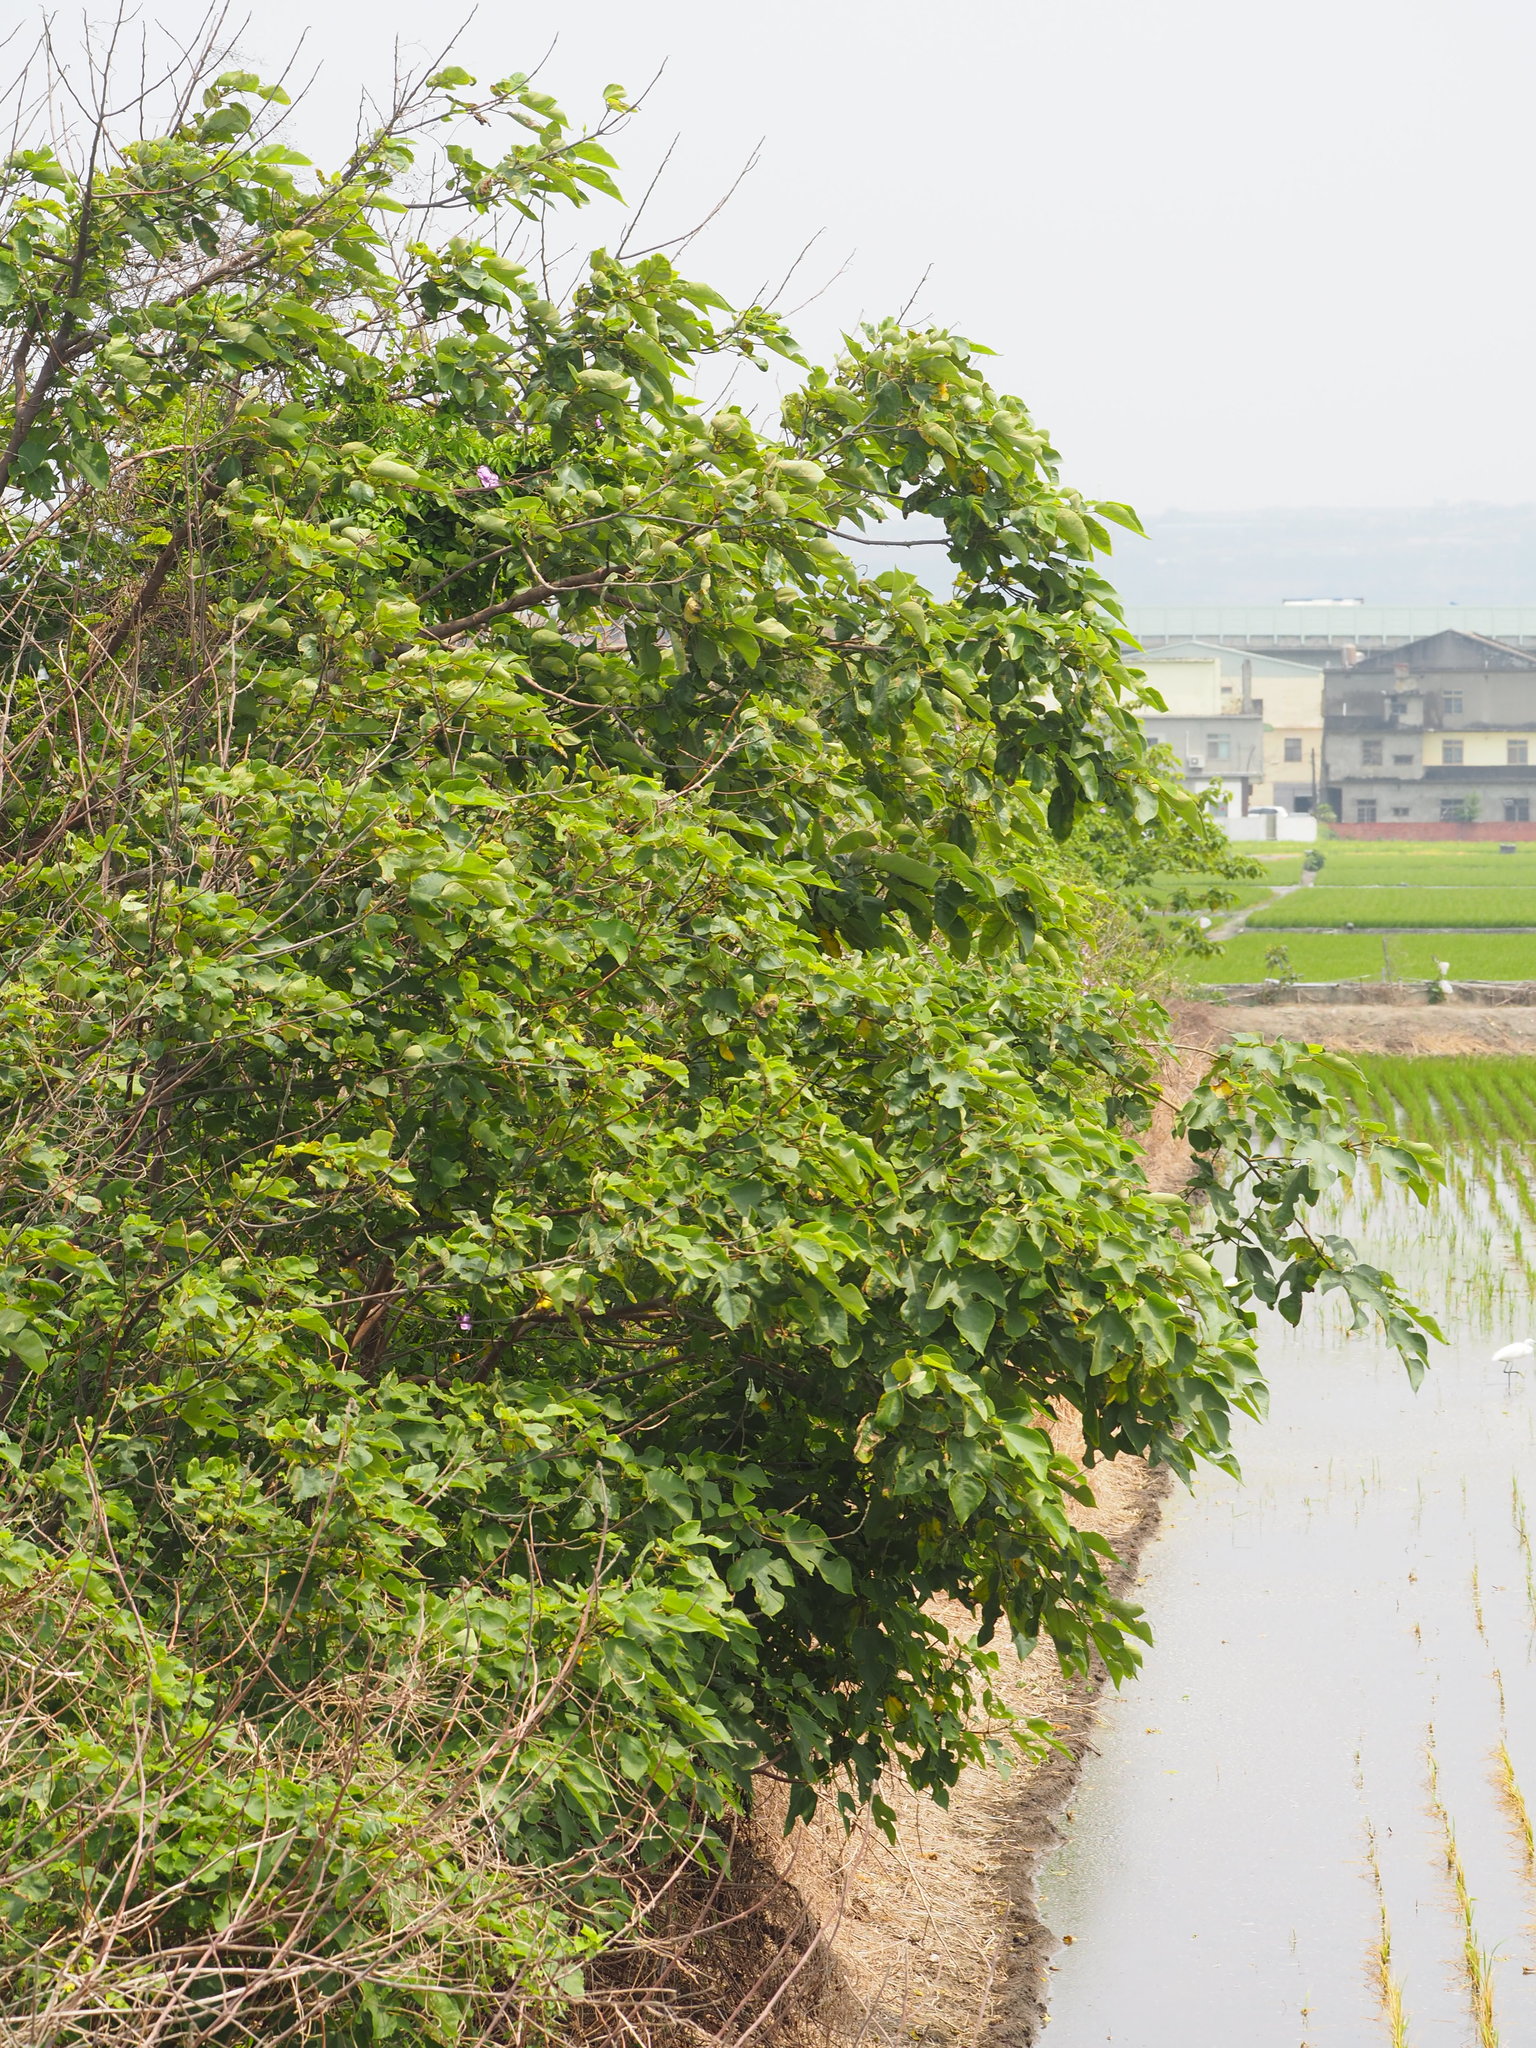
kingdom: Plantae
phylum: Tracheophyta
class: Magnoliopsida
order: Rosales
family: Moraceae
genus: Broussonetia
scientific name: Broussonetia papyrifera
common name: Paper mulberry
